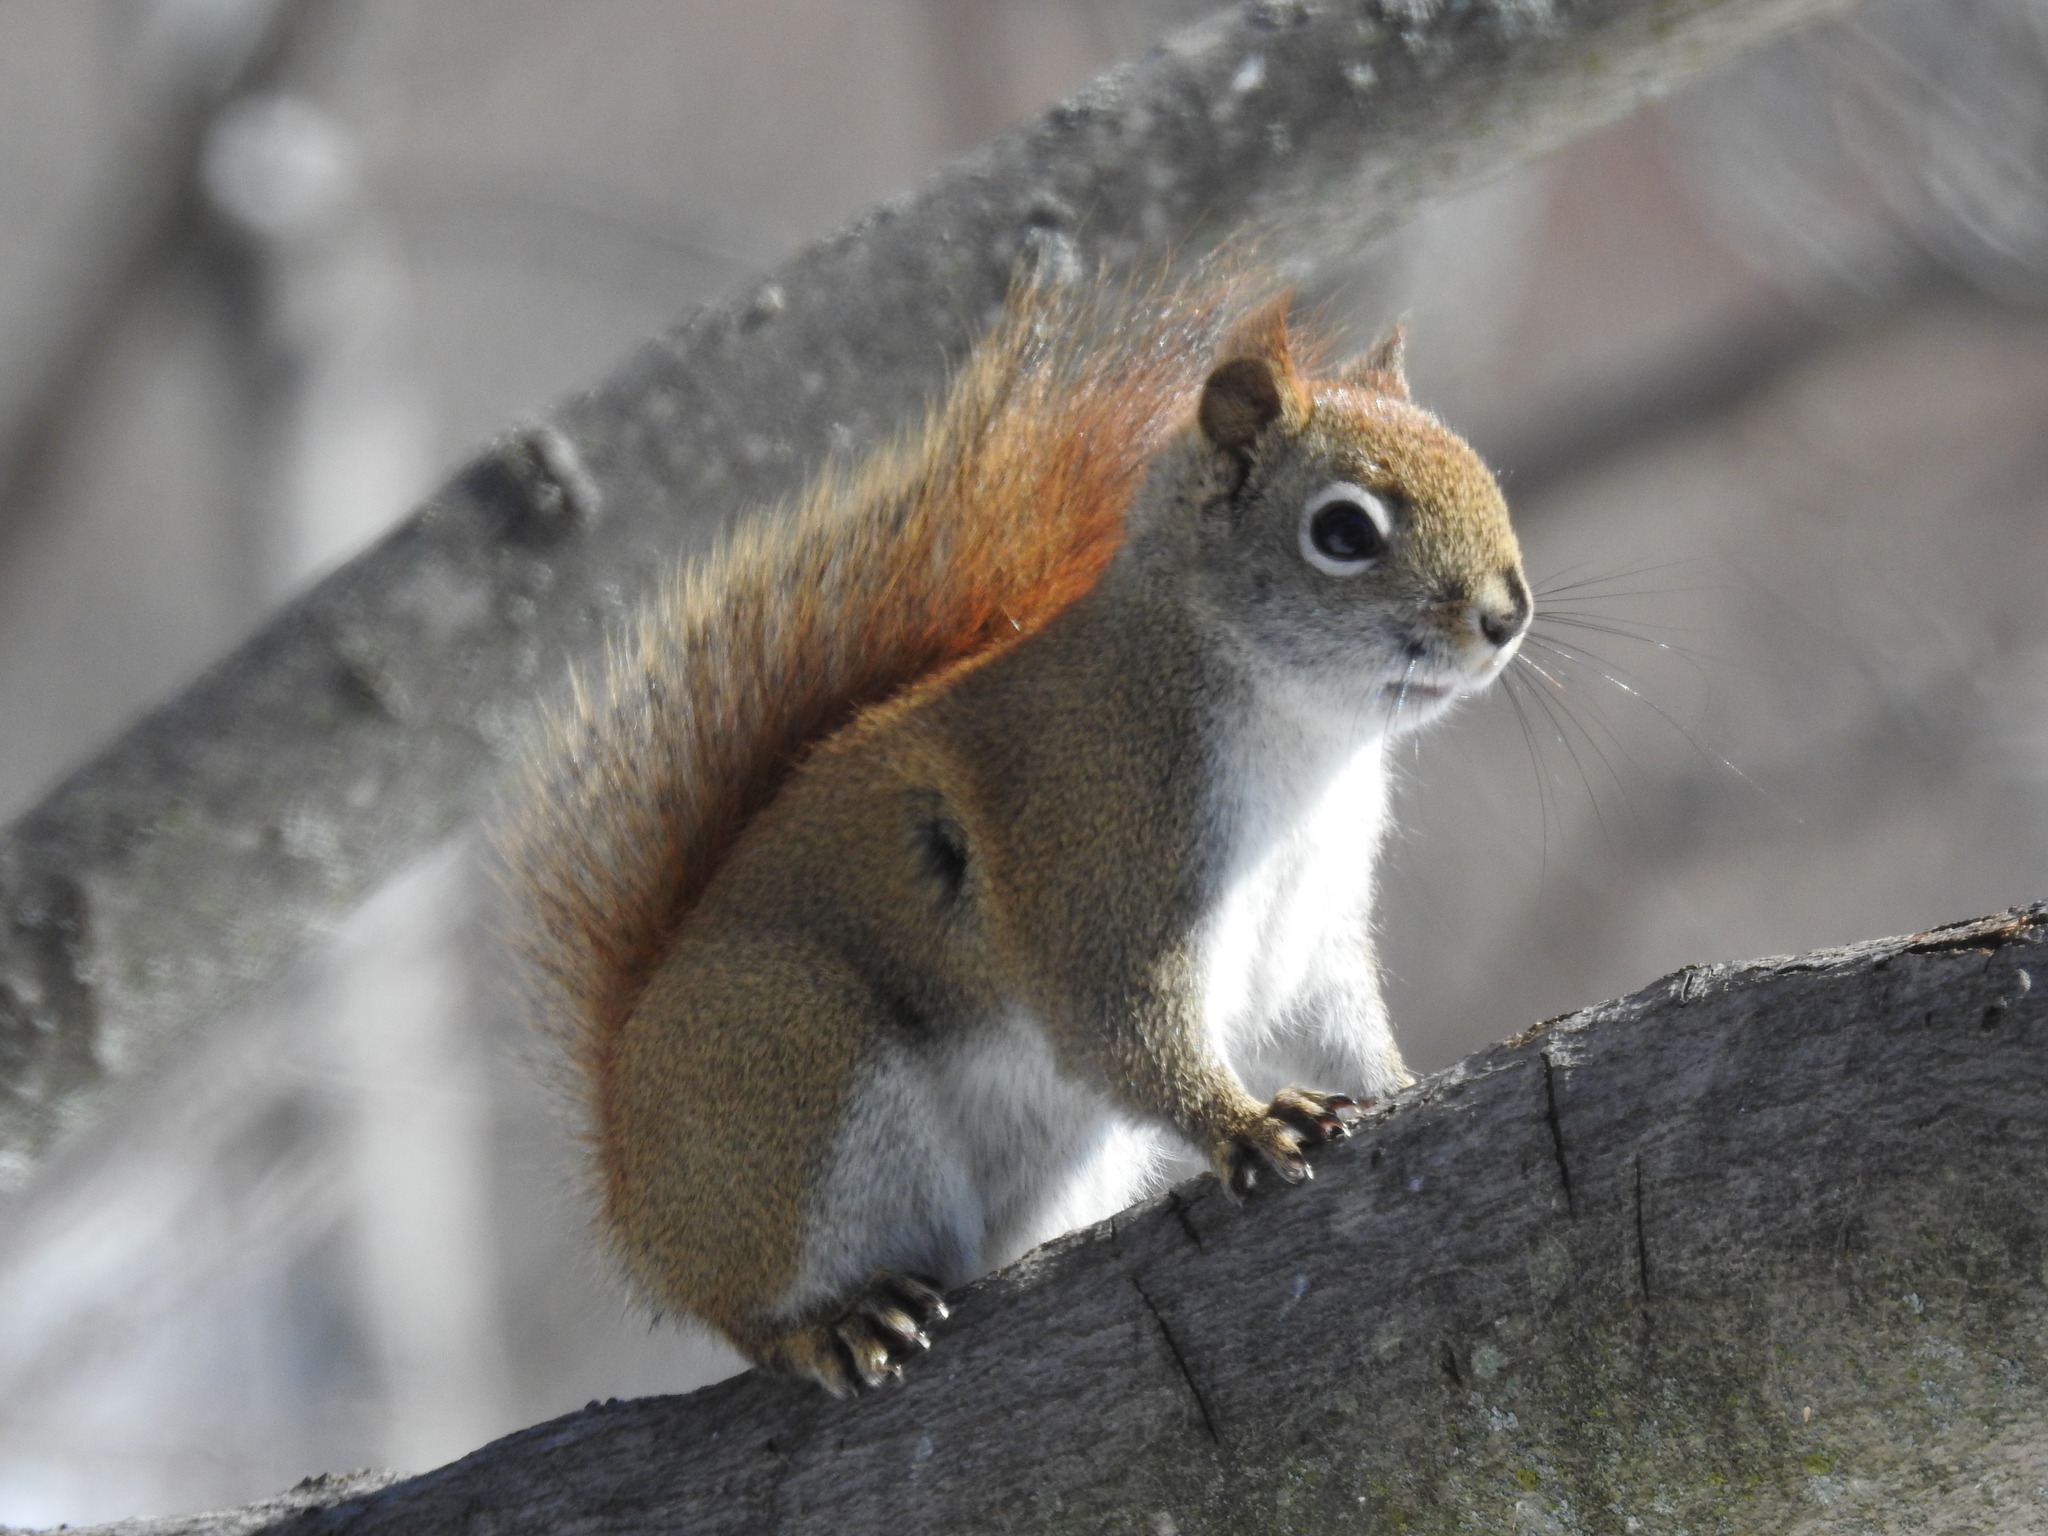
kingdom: Animalia
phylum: Chordata
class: Mammalia
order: Rodentia
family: Sciuridae
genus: Tamiasciurus
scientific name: Tamiasciurus hudsonicus
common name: Red squirrel
